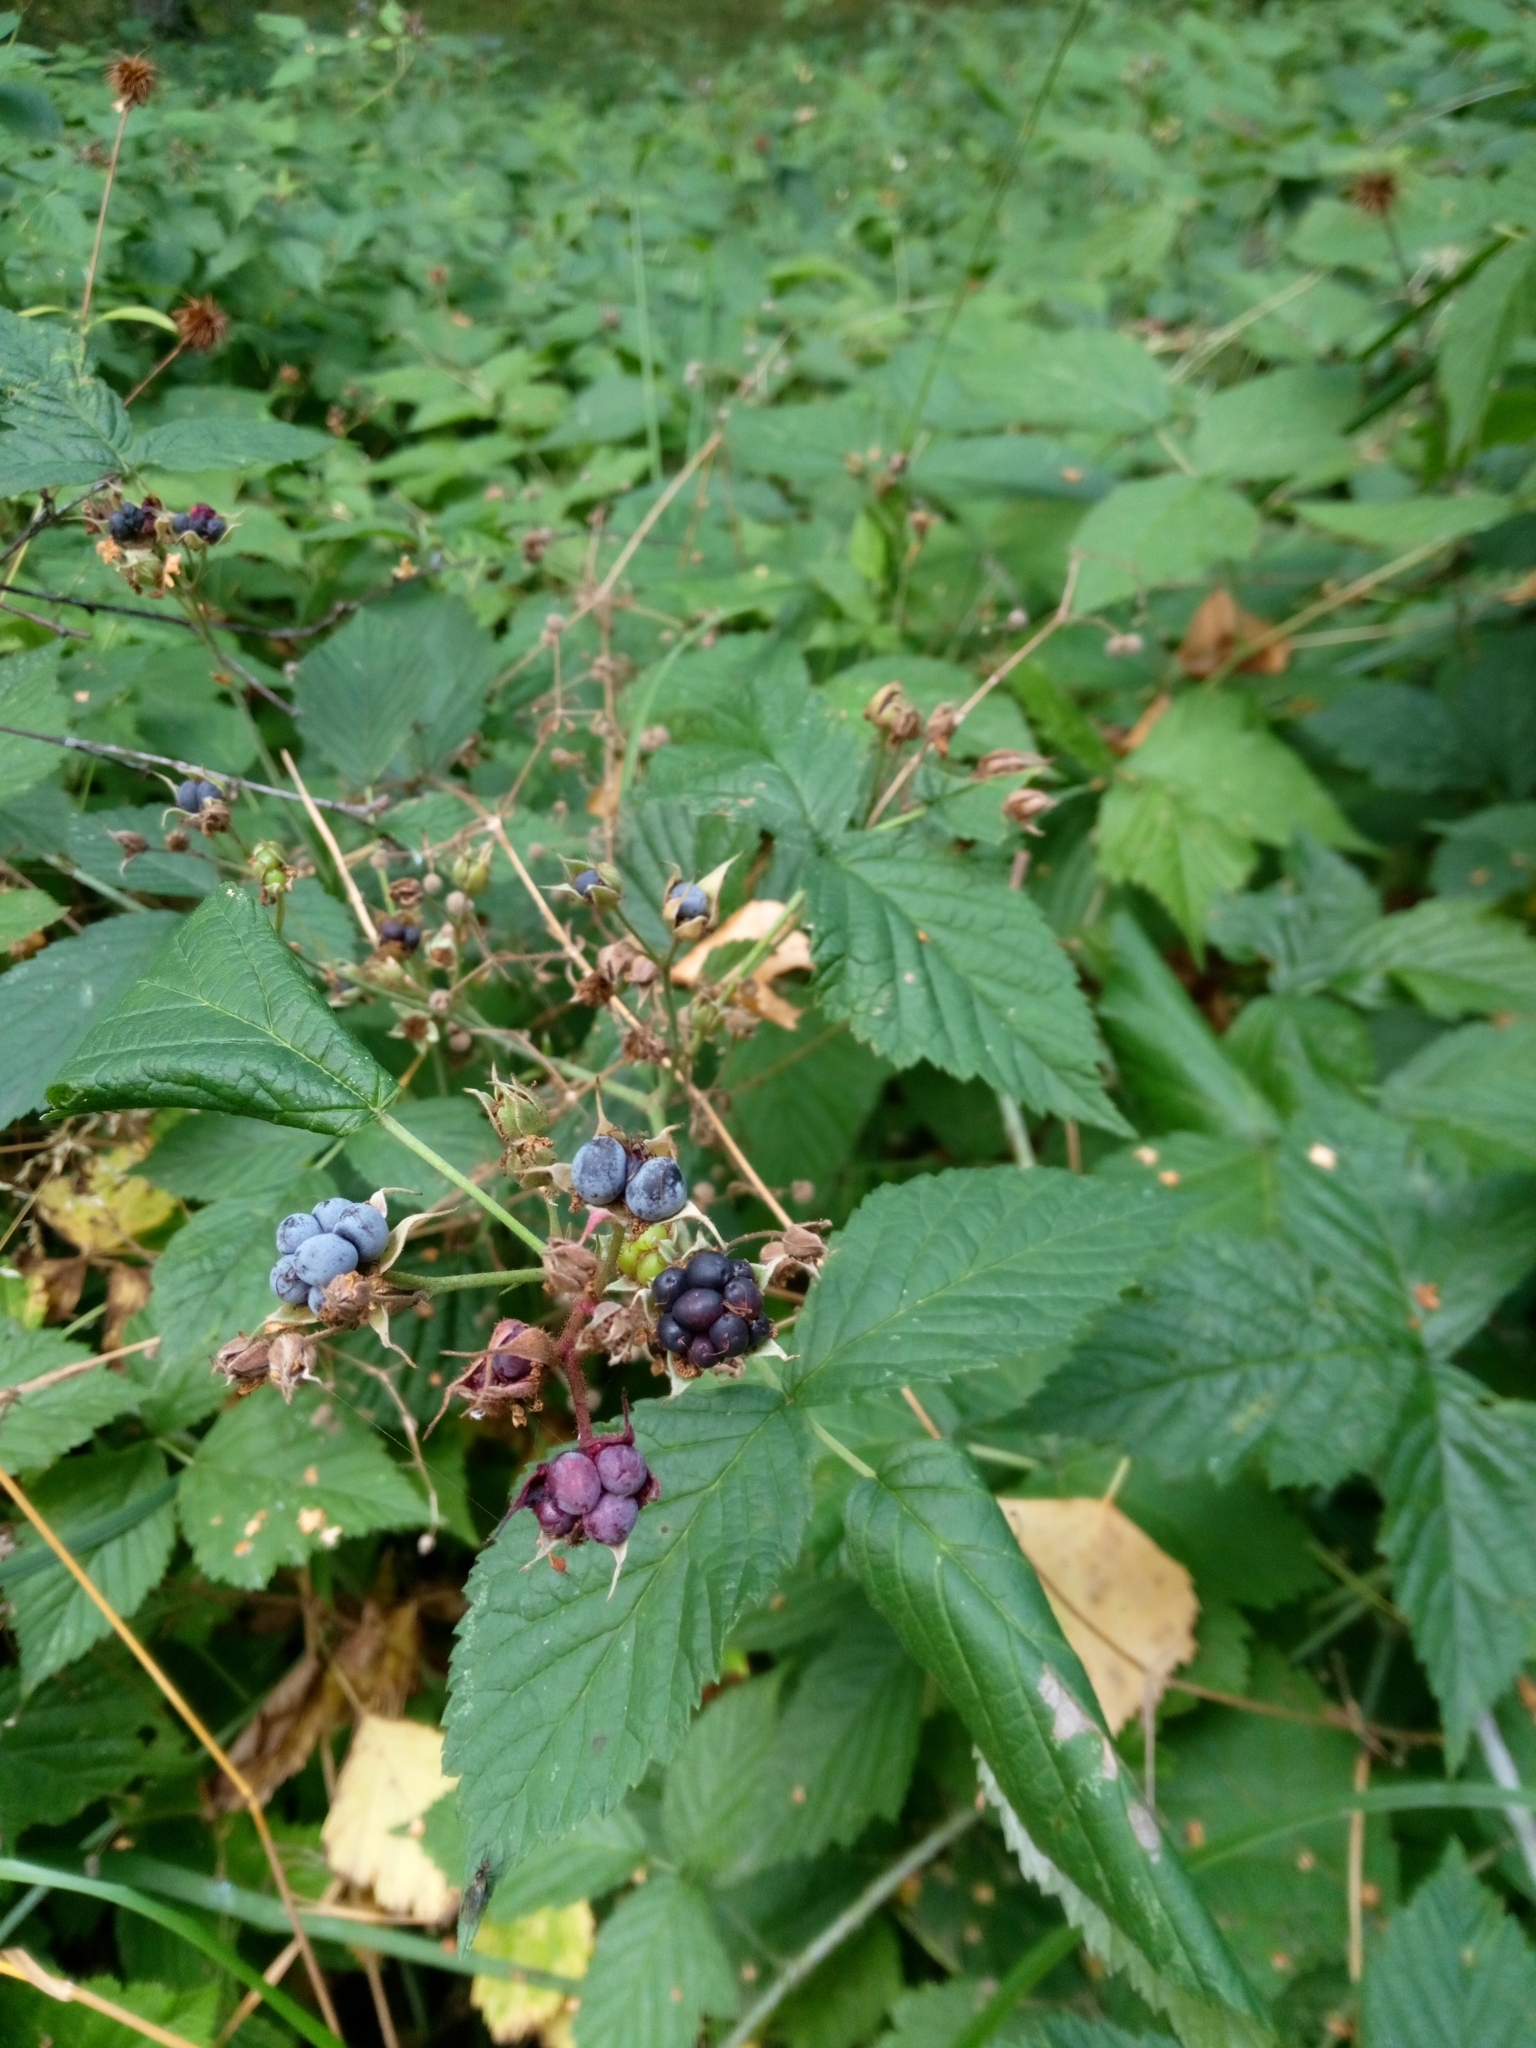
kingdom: Plantae
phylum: Tracheophyta
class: Magnoliopsida
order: Rosales
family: Rosaceae
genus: Rubus
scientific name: Rubus caesius
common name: Dewberry
